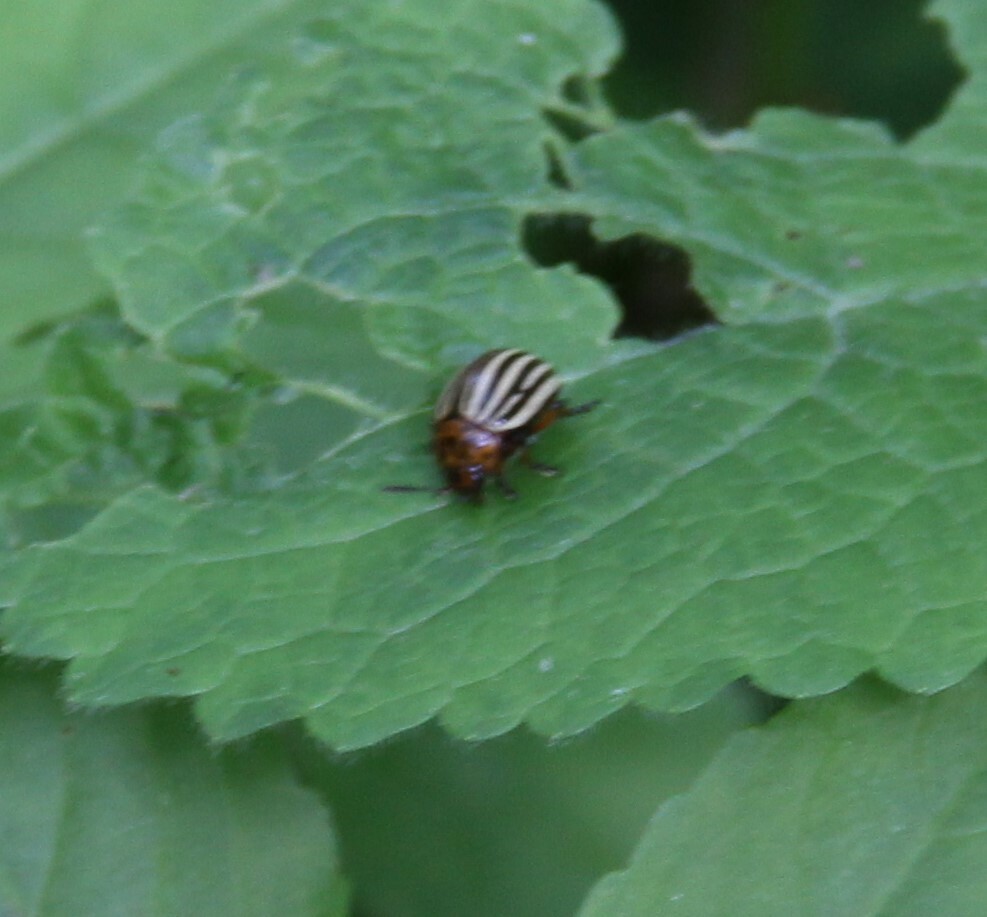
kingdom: Animalia
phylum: Arthropoda
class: Insecta
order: Coleoptera
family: Chrysomelidae
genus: Leptinotarsa
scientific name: Leptinotarsa decemlineata
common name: Colorado potato beetle
